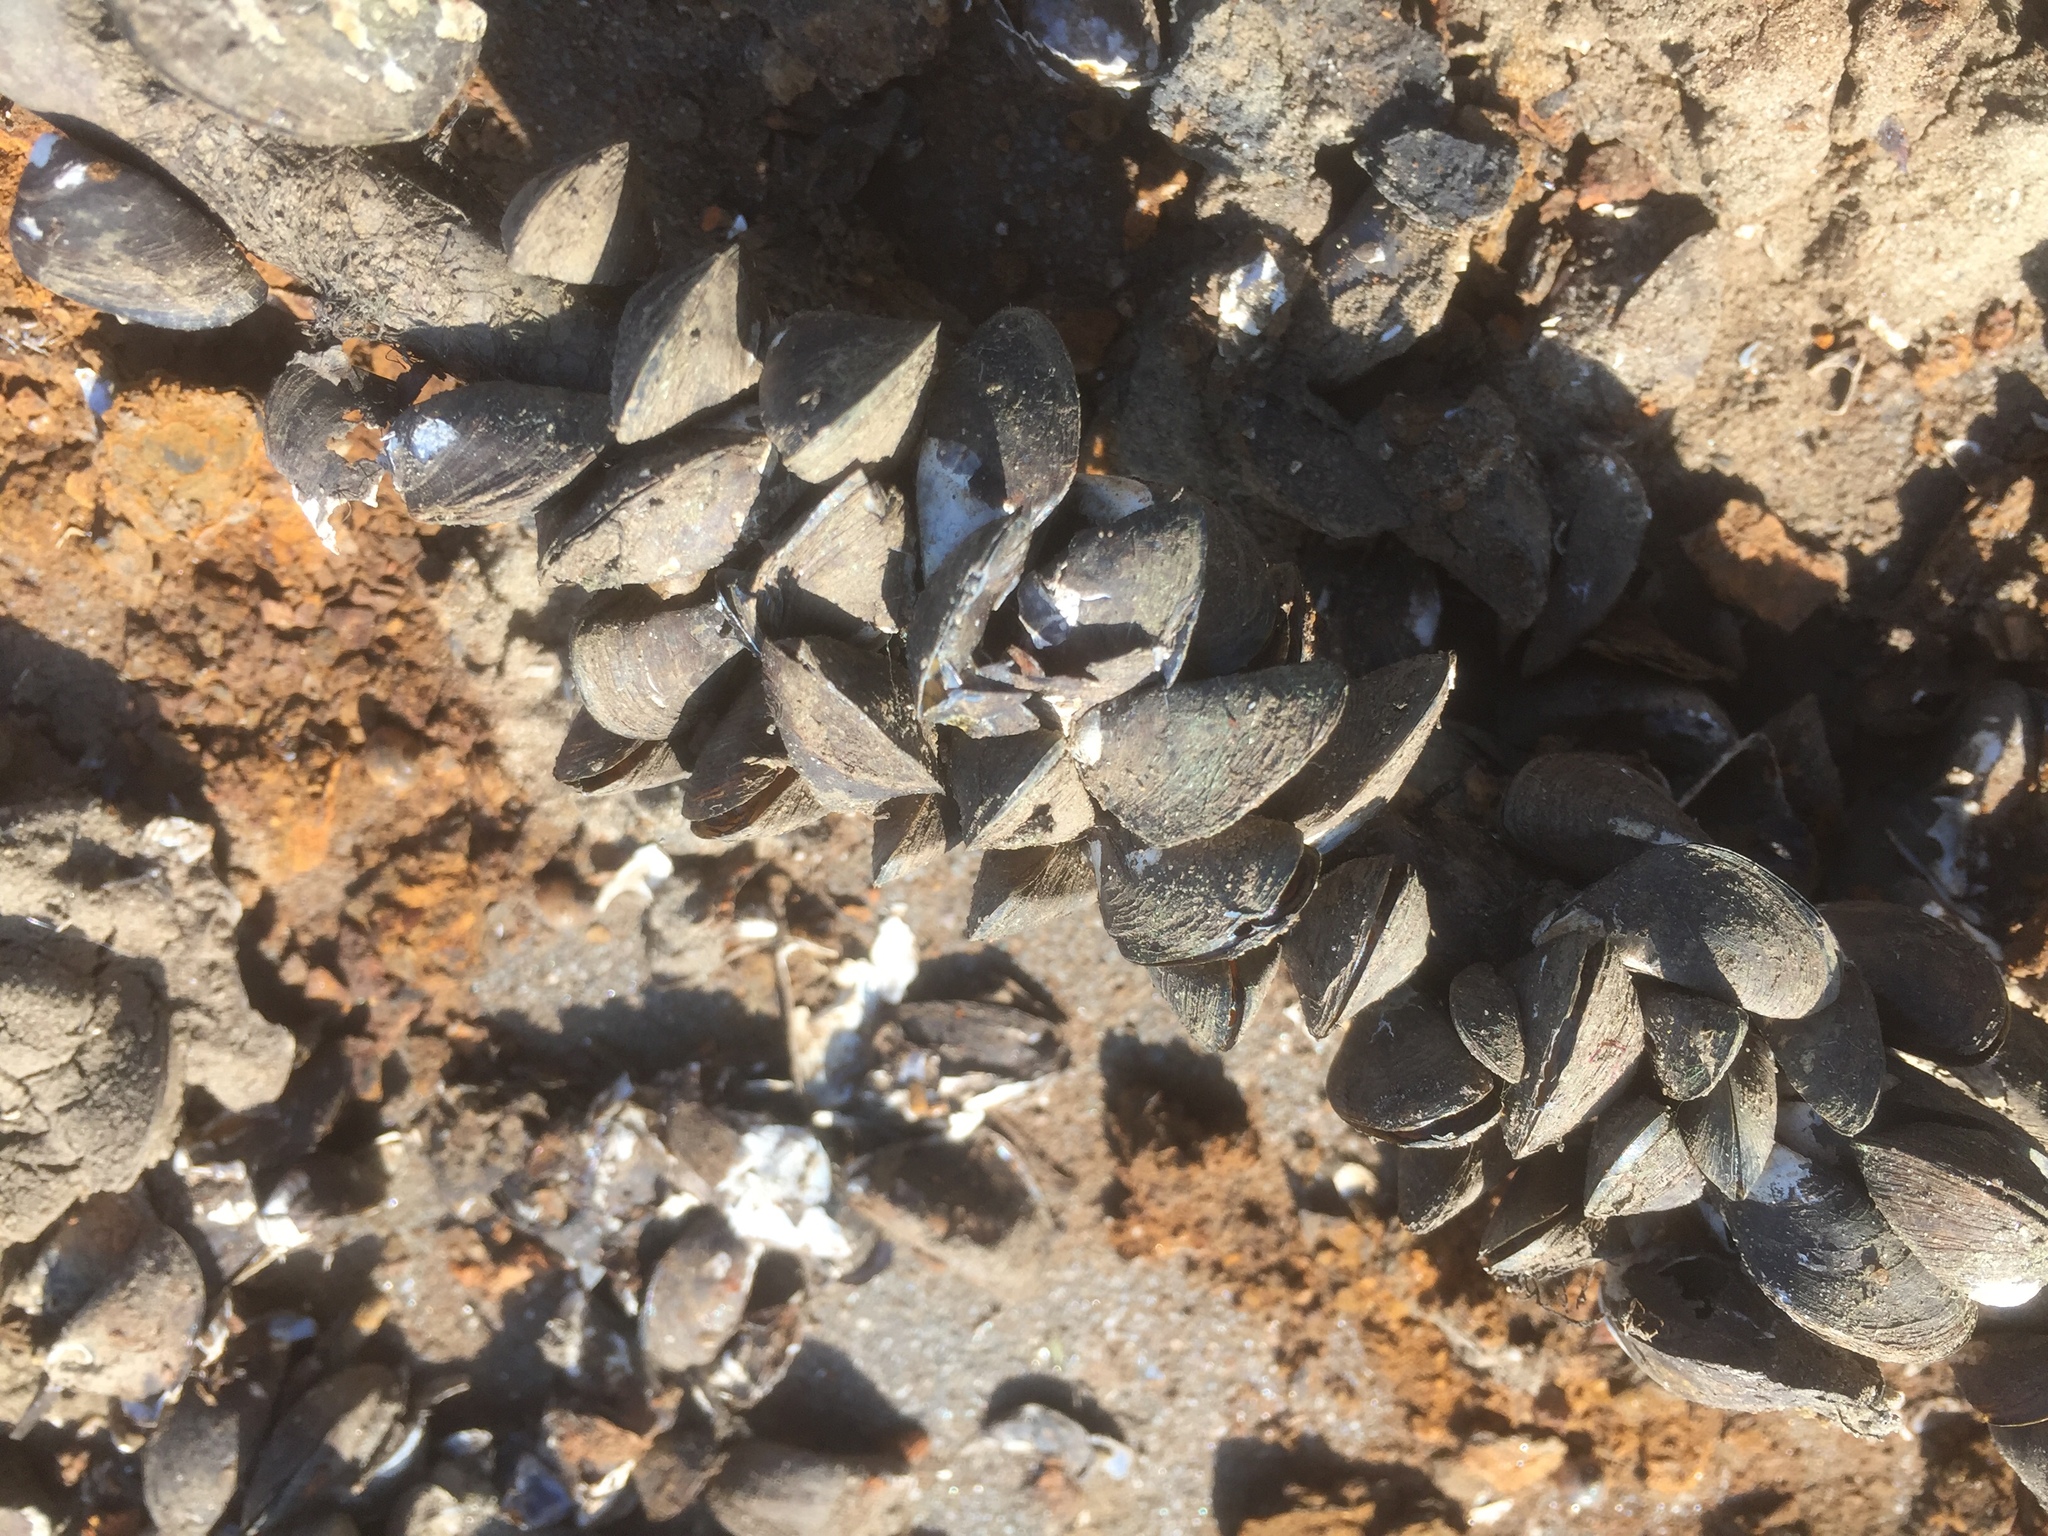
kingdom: Animalia
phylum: Mollusca
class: Bivalvia
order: Myida
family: Dreissenidae
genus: Dreissena
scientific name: Dreissena polymorpha
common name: Zebra mussel
